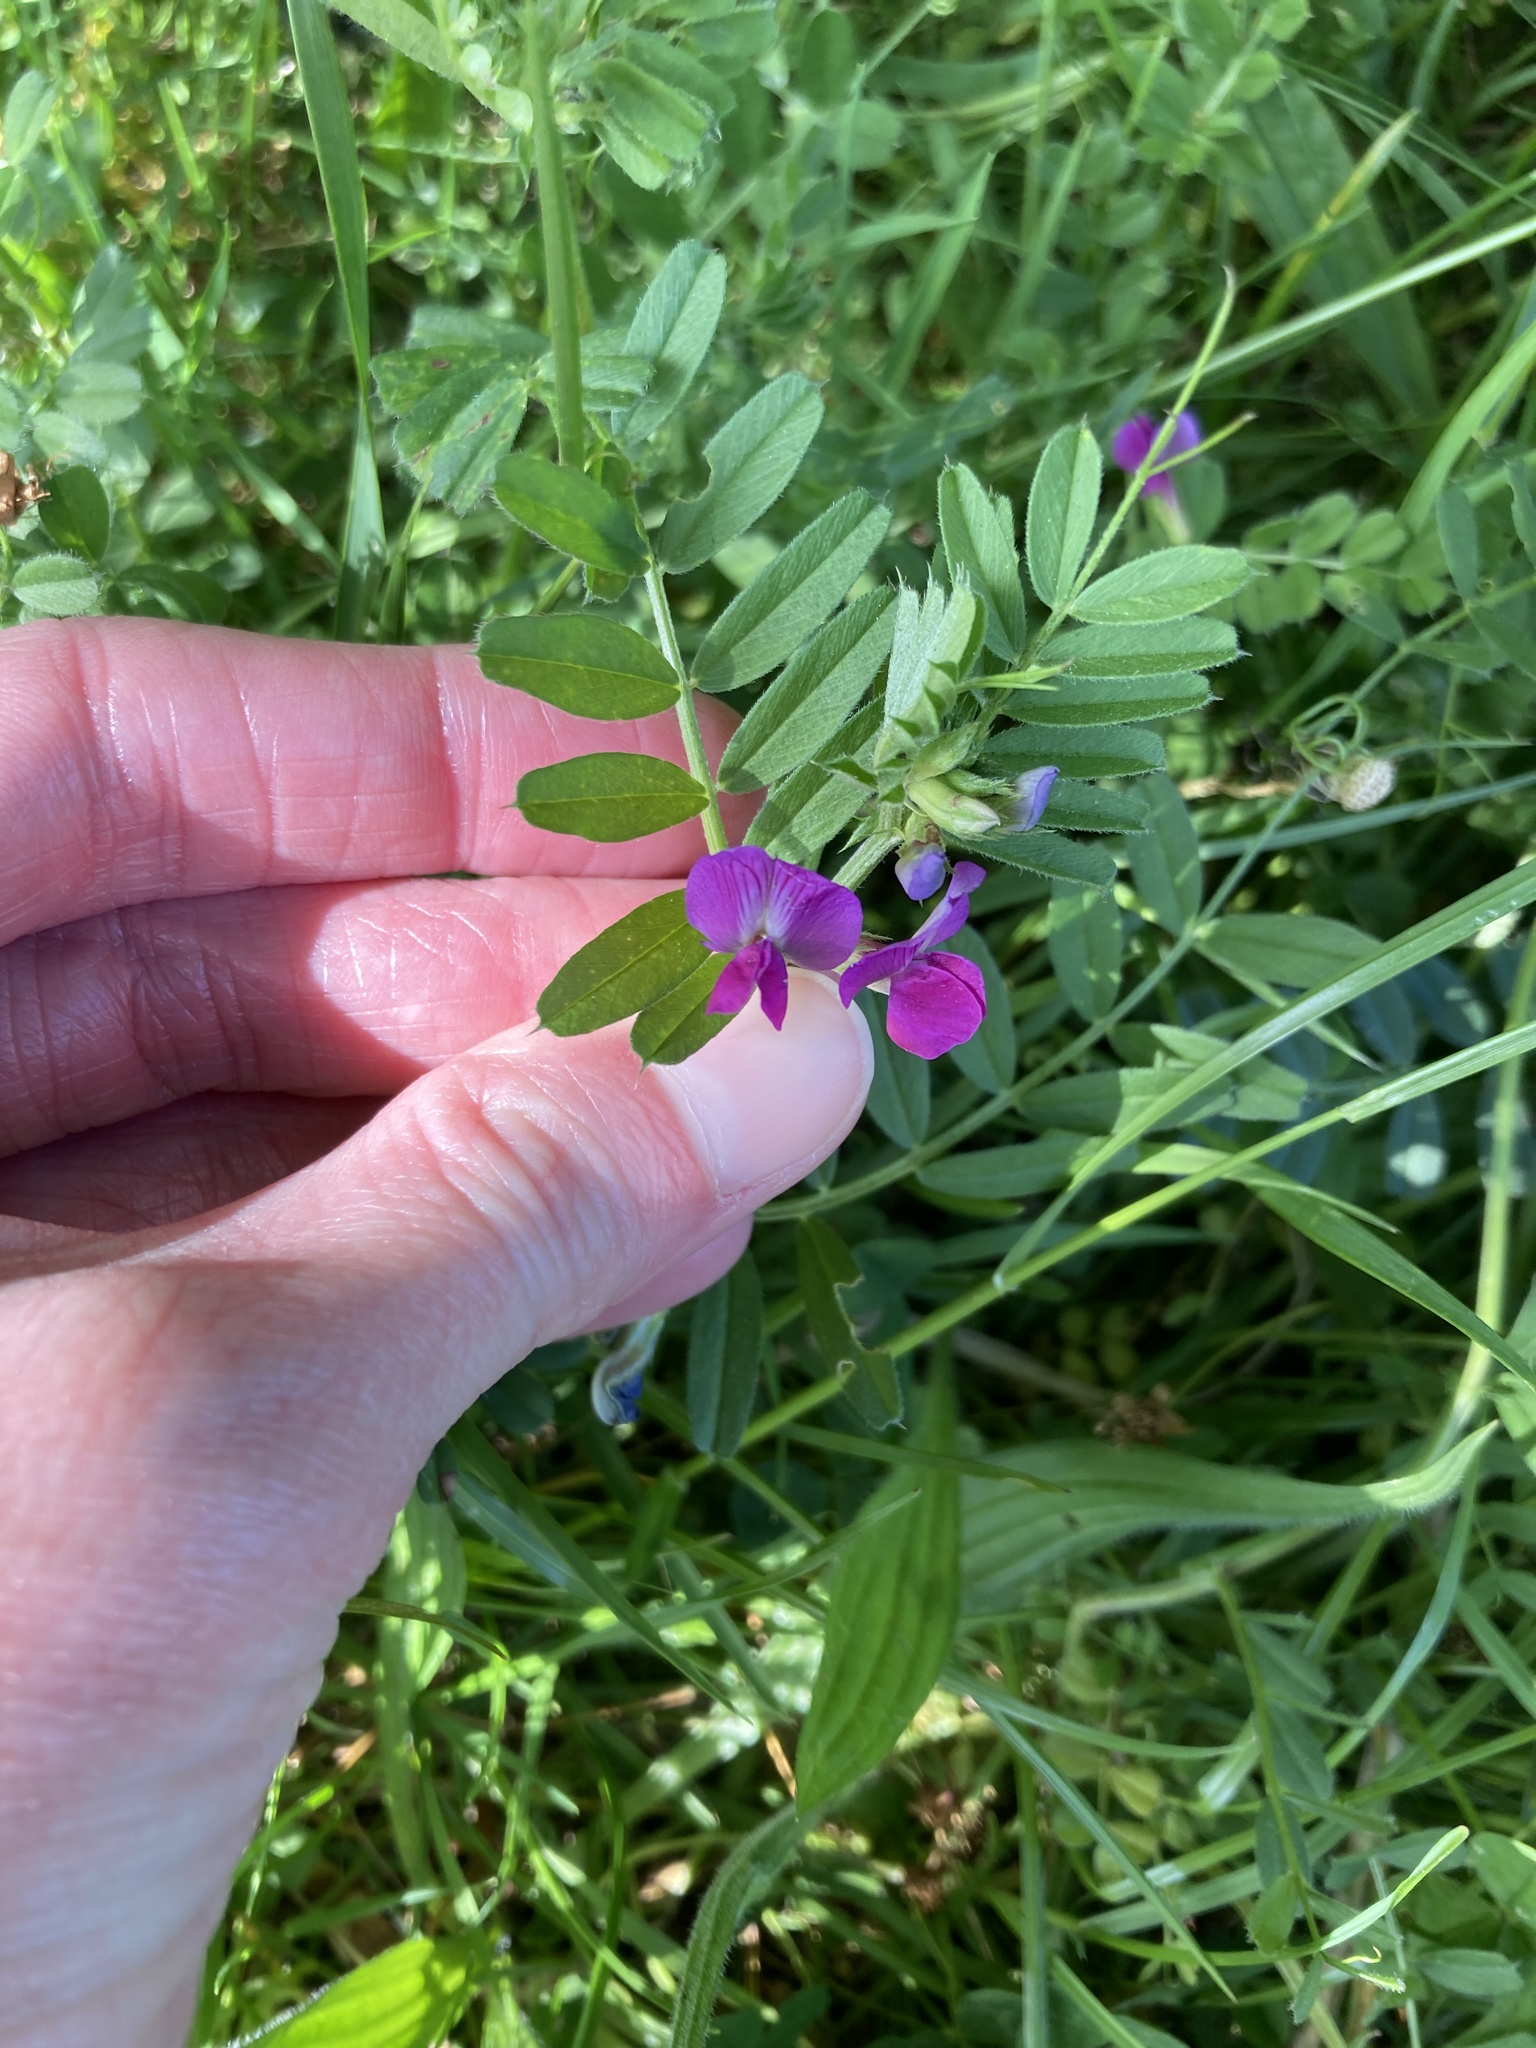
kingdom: Plantae
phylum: Tracheophyta
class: Magnoliopsida
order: Fabales
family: Fabaceae
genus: Vicia
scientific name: Vicia sativa
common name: Garden vetch
